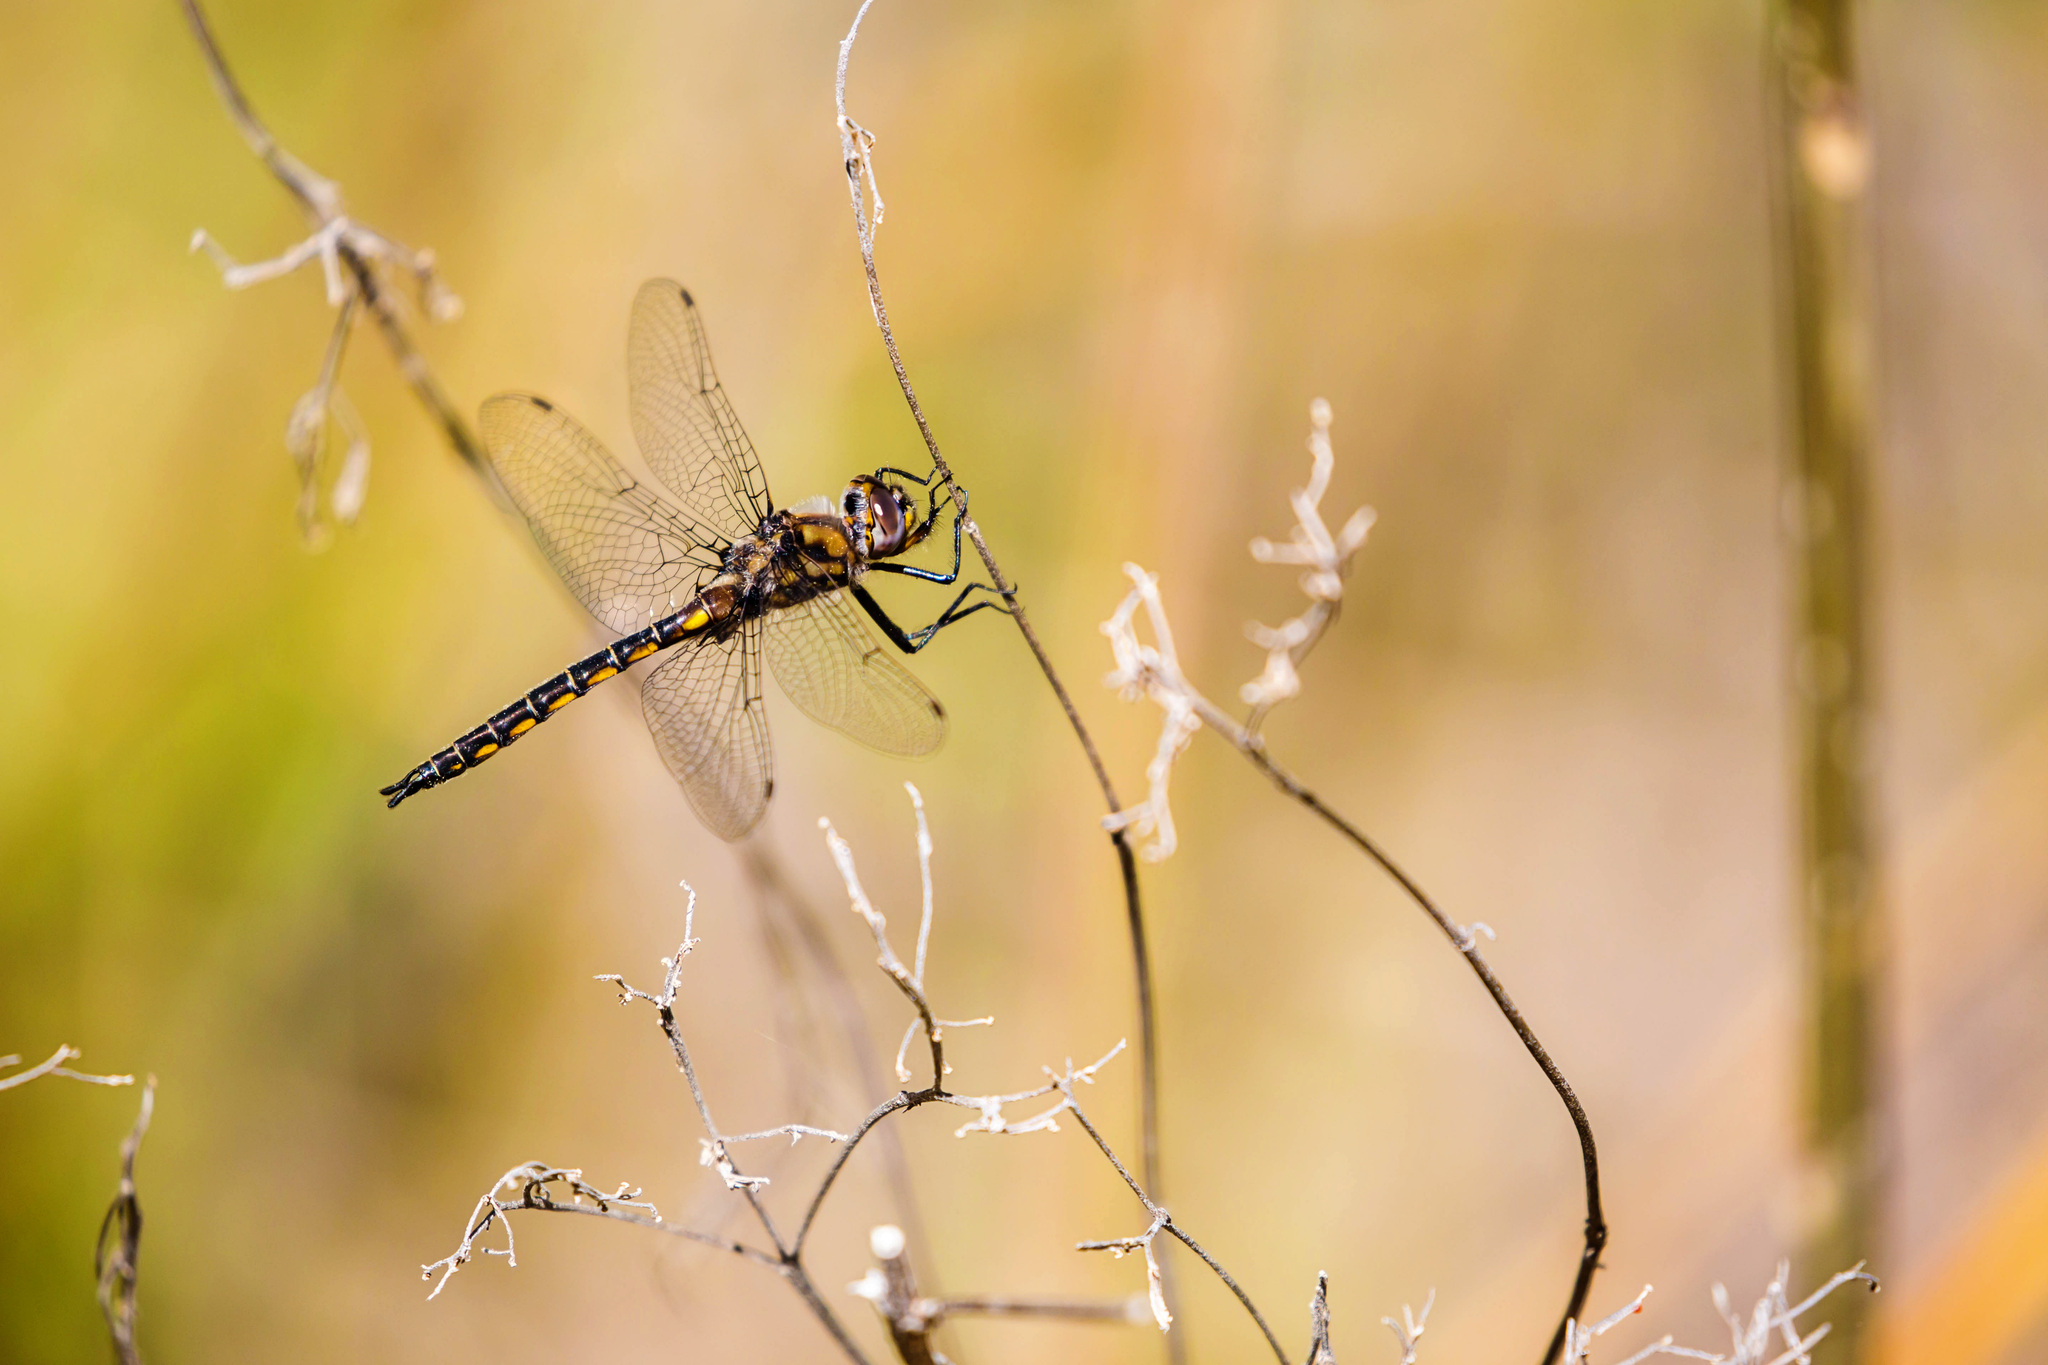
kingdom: Animalia
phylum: Arthropoda
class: Insecta
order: Odonata
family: Corduliidae
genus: Epitheca
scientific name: Epitheca cynosura
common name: Common baskettail
